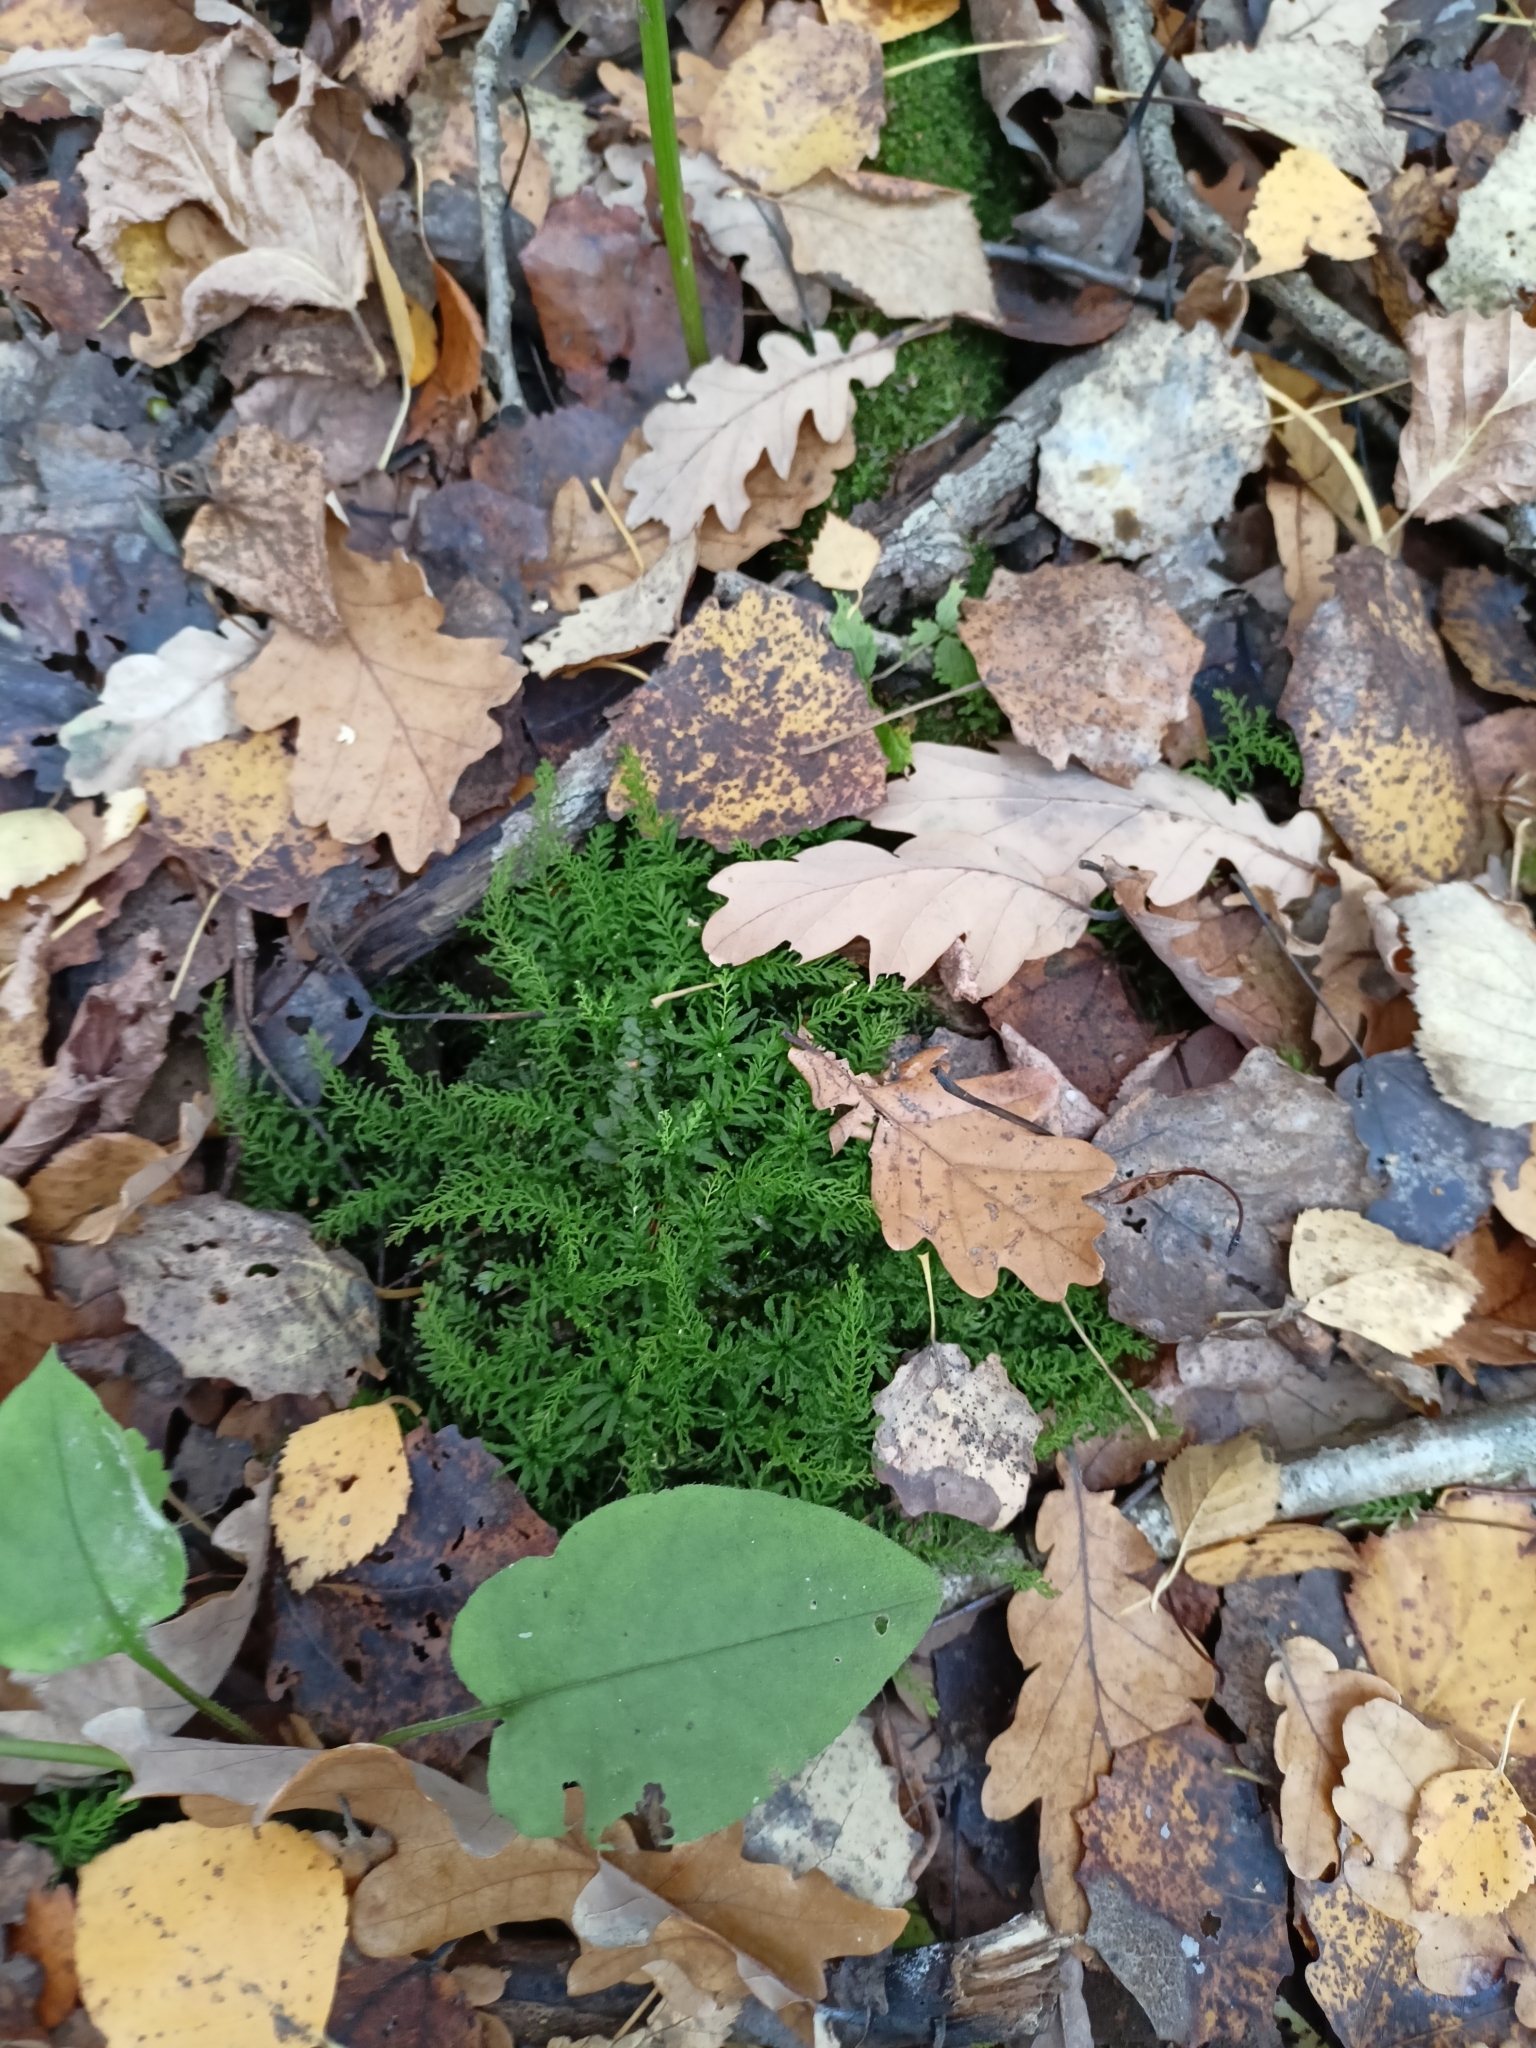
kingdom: Plantae
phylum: Bryophyta
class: Bryopsida
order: Bryales
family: Mniaceae
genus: Plagiomnium
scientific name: Plagiomnium undulatum
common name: Hart's-tongue thyme-moss
